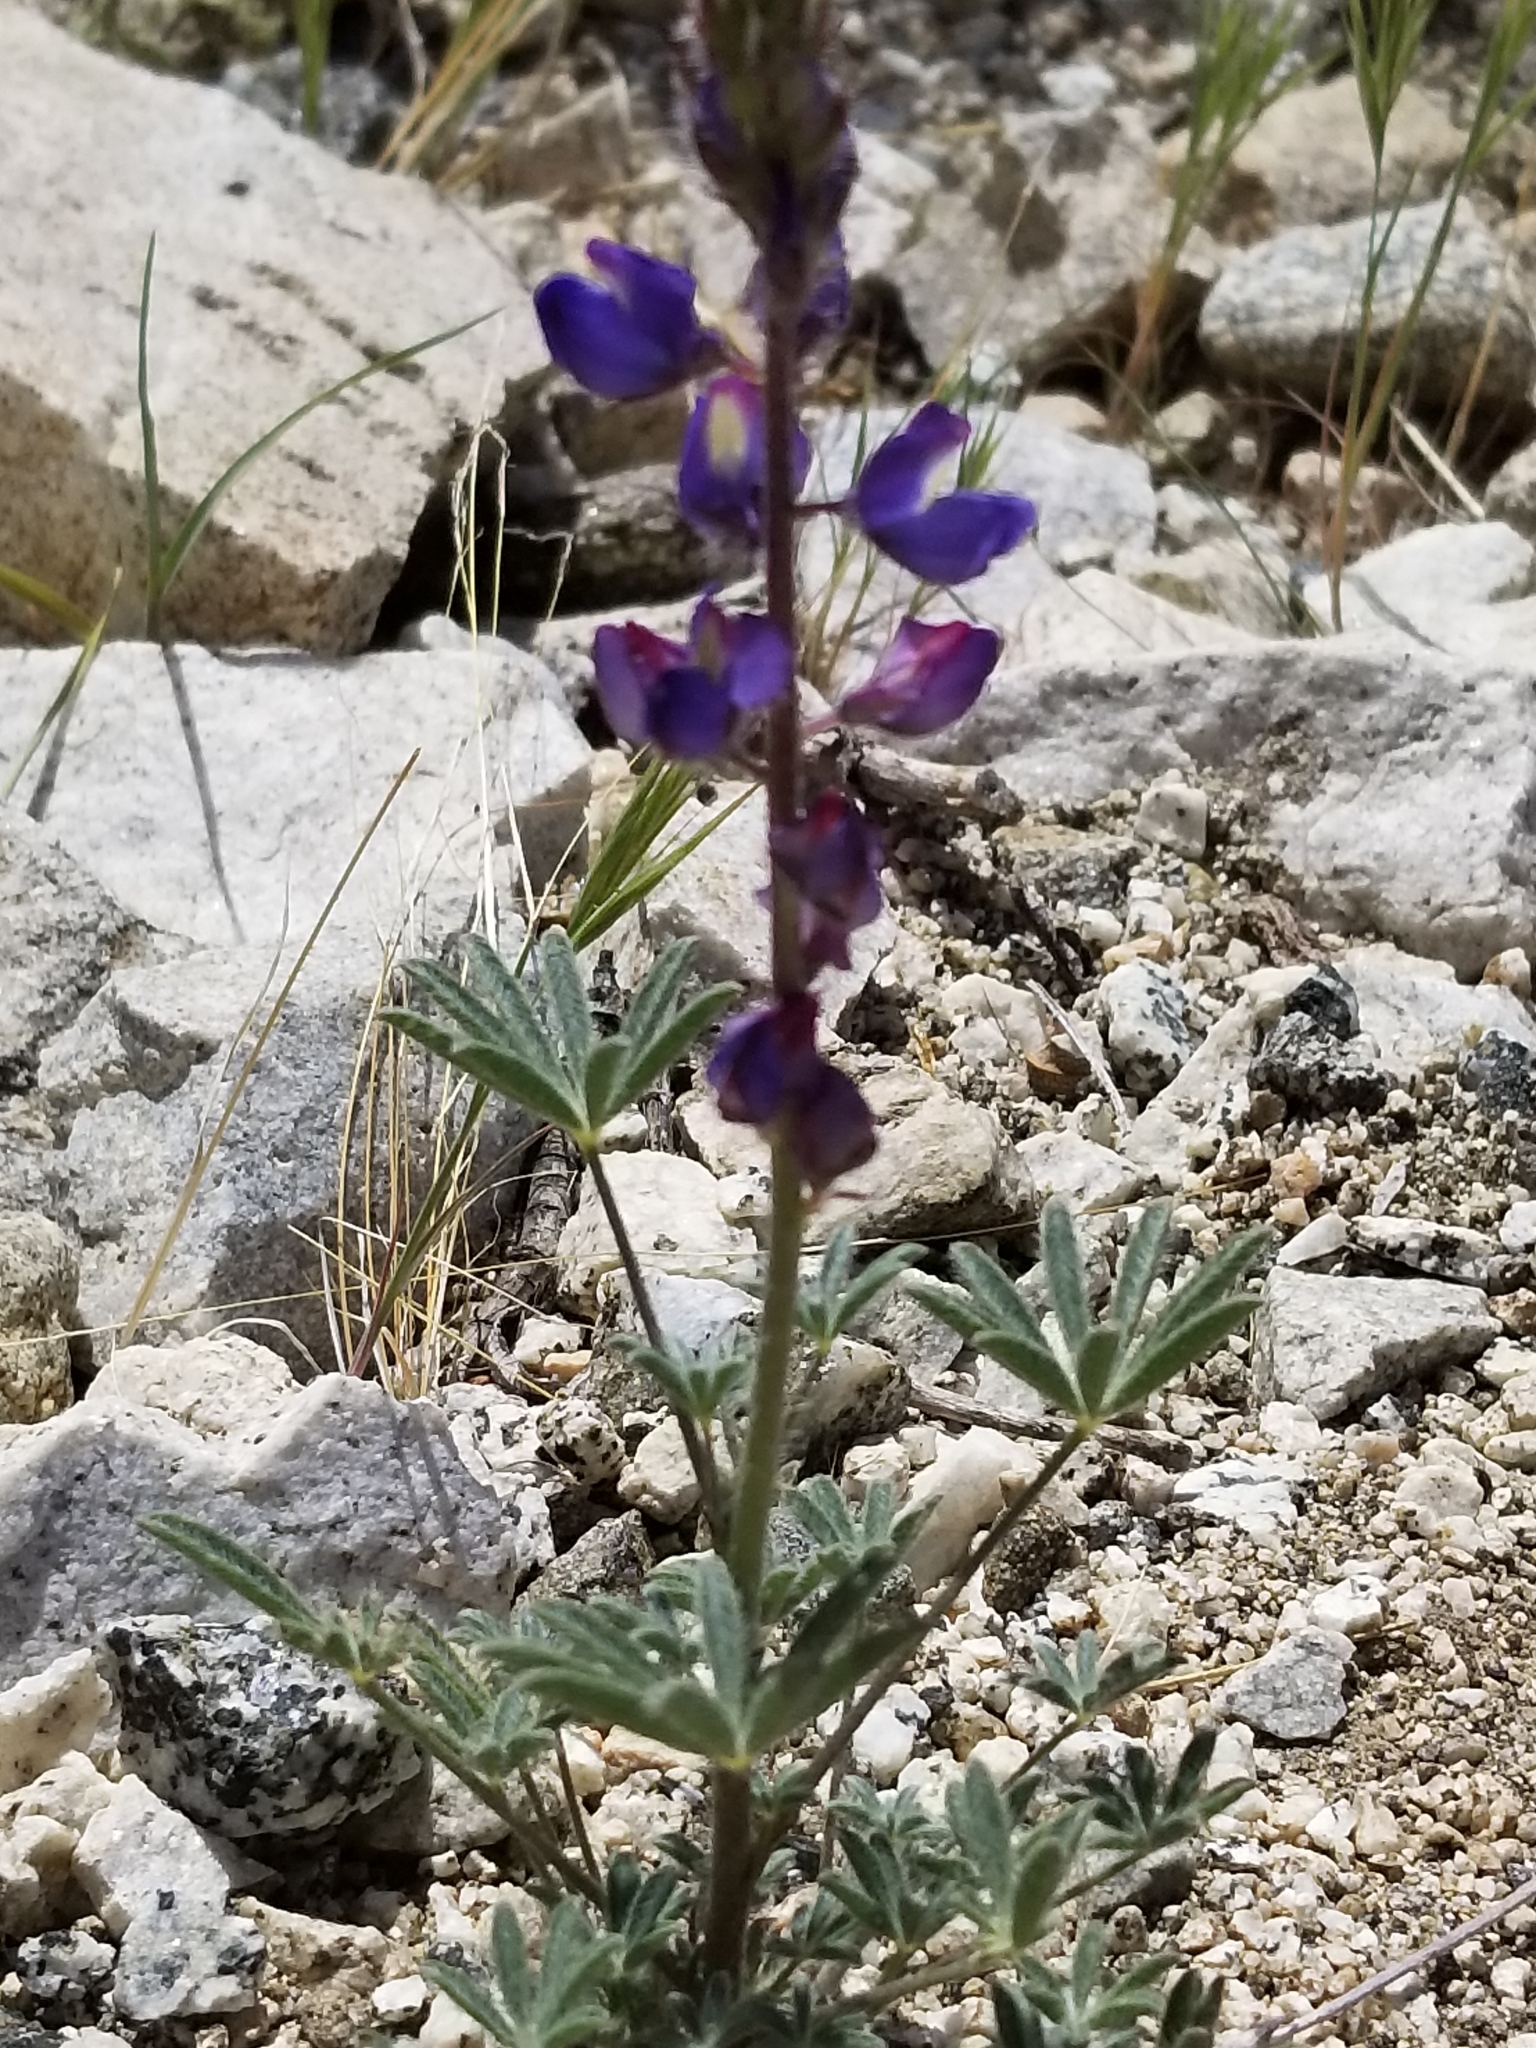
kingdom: Plantae
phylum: Tracheophyta
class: Magnoliopsida
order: Fabales
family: Fabaceae
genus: Lupinus
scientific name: Lupinus bicolor
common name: Miniature lupine
